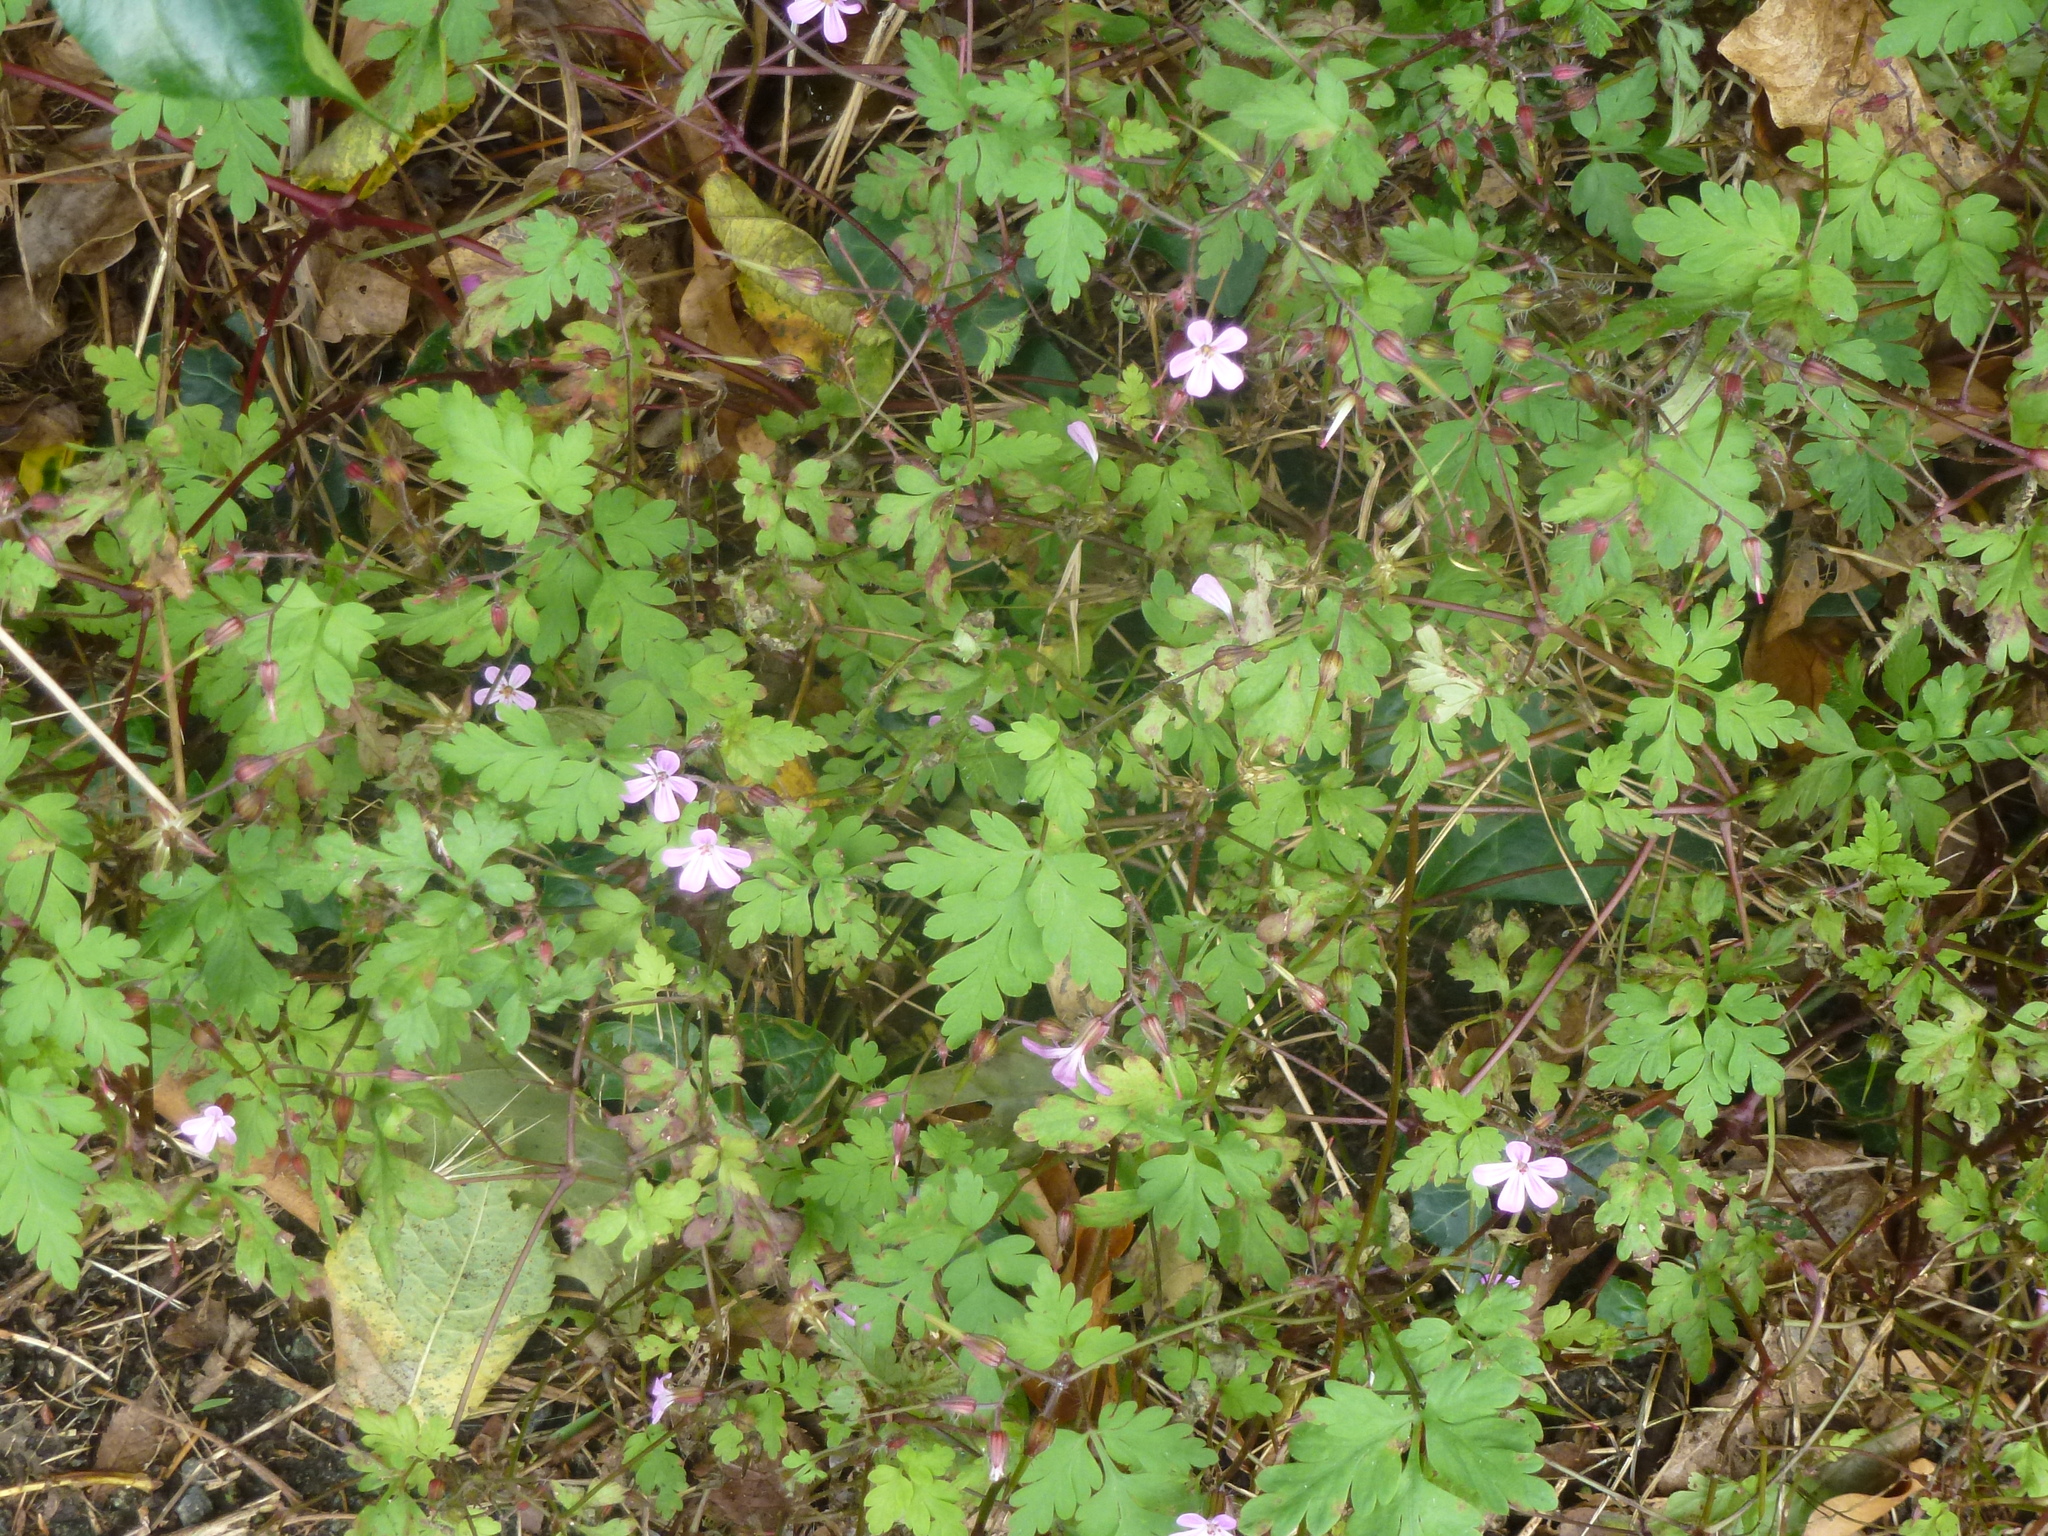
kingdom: Plantae
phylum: Tracheophyta
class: Magnoliopsida
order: Geraniales
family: Geraniaceae
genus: Geranium
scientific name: Geranium robertianum
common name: Herb-robert
